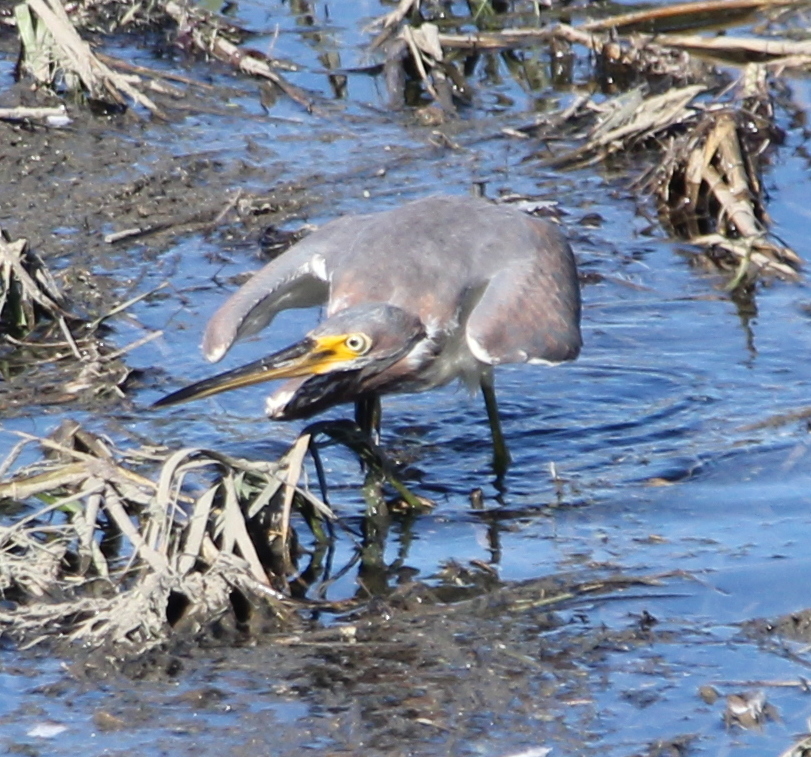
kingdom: Animalia
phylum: Chordata
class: Aves
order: Pelecaniformes
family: Ardeidae
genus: Egretta
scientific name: Egretta tricolor
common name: Tricolored heron
